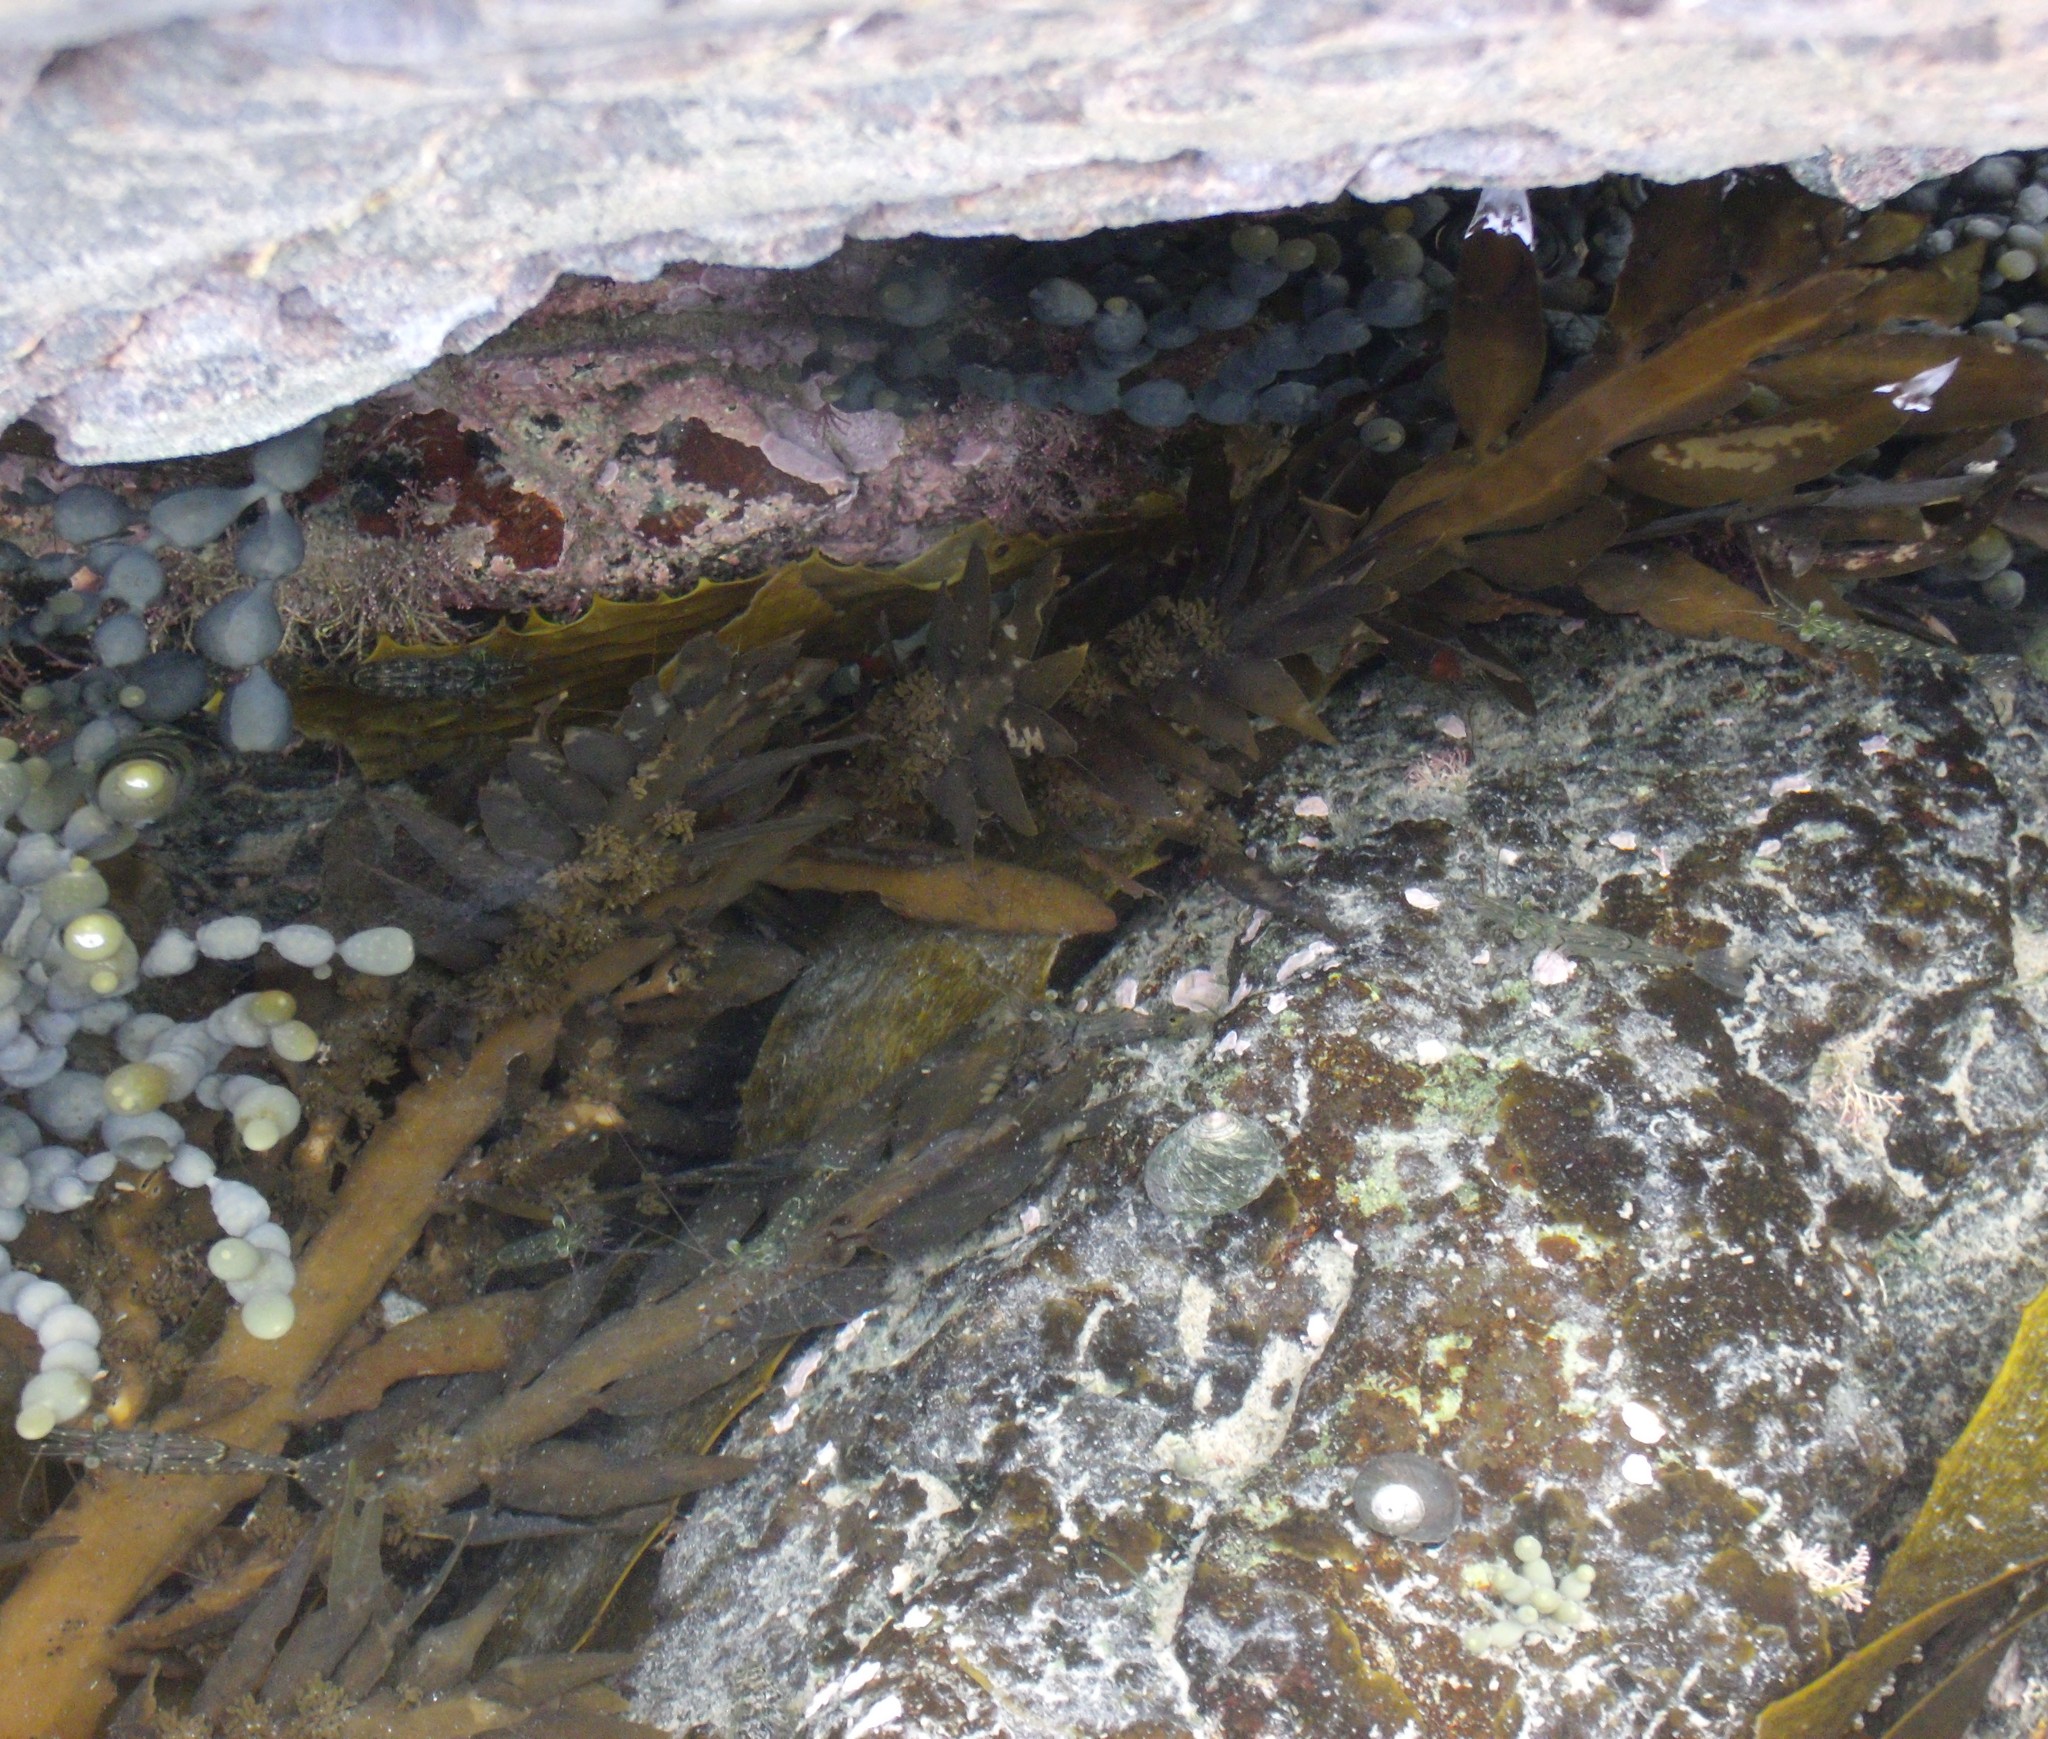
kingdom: Animalia
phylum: Arthropoda
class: Malacostraca
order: Decapoda
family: Palaemonidae
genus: Palaemon
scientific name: Palaemon affinis
